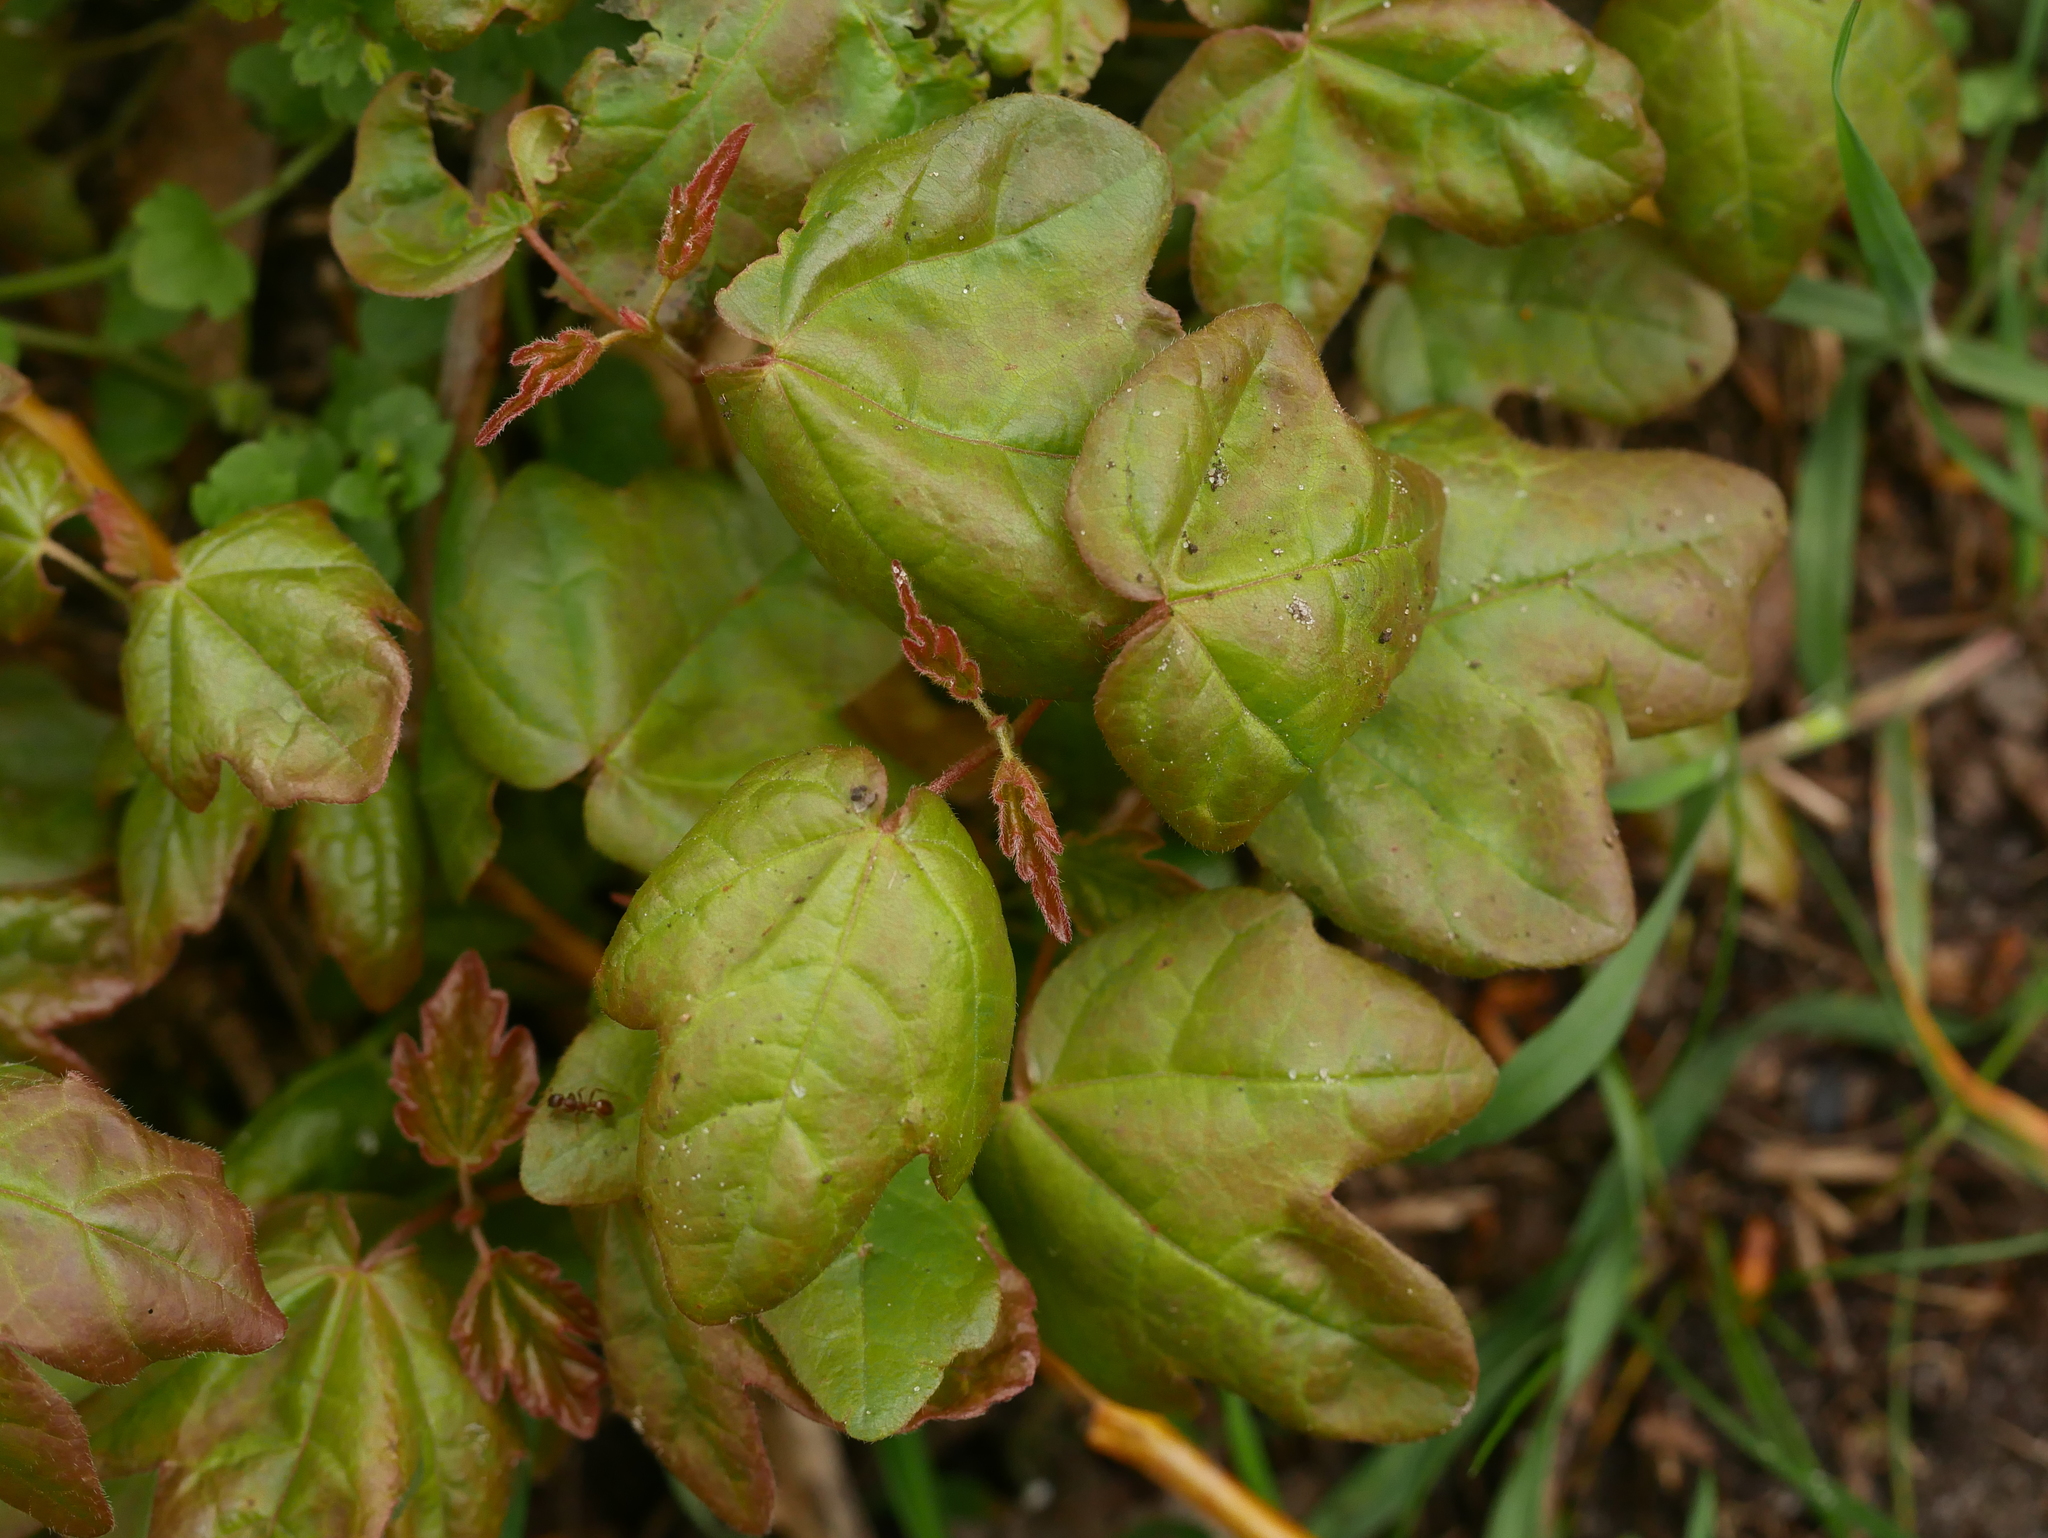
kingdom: Plantae
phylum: Tracheophyta
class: Magnoliopsida
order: Sapindales
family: Sapindaceae
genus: Acer
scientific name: Acer campestre
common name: Field maple
